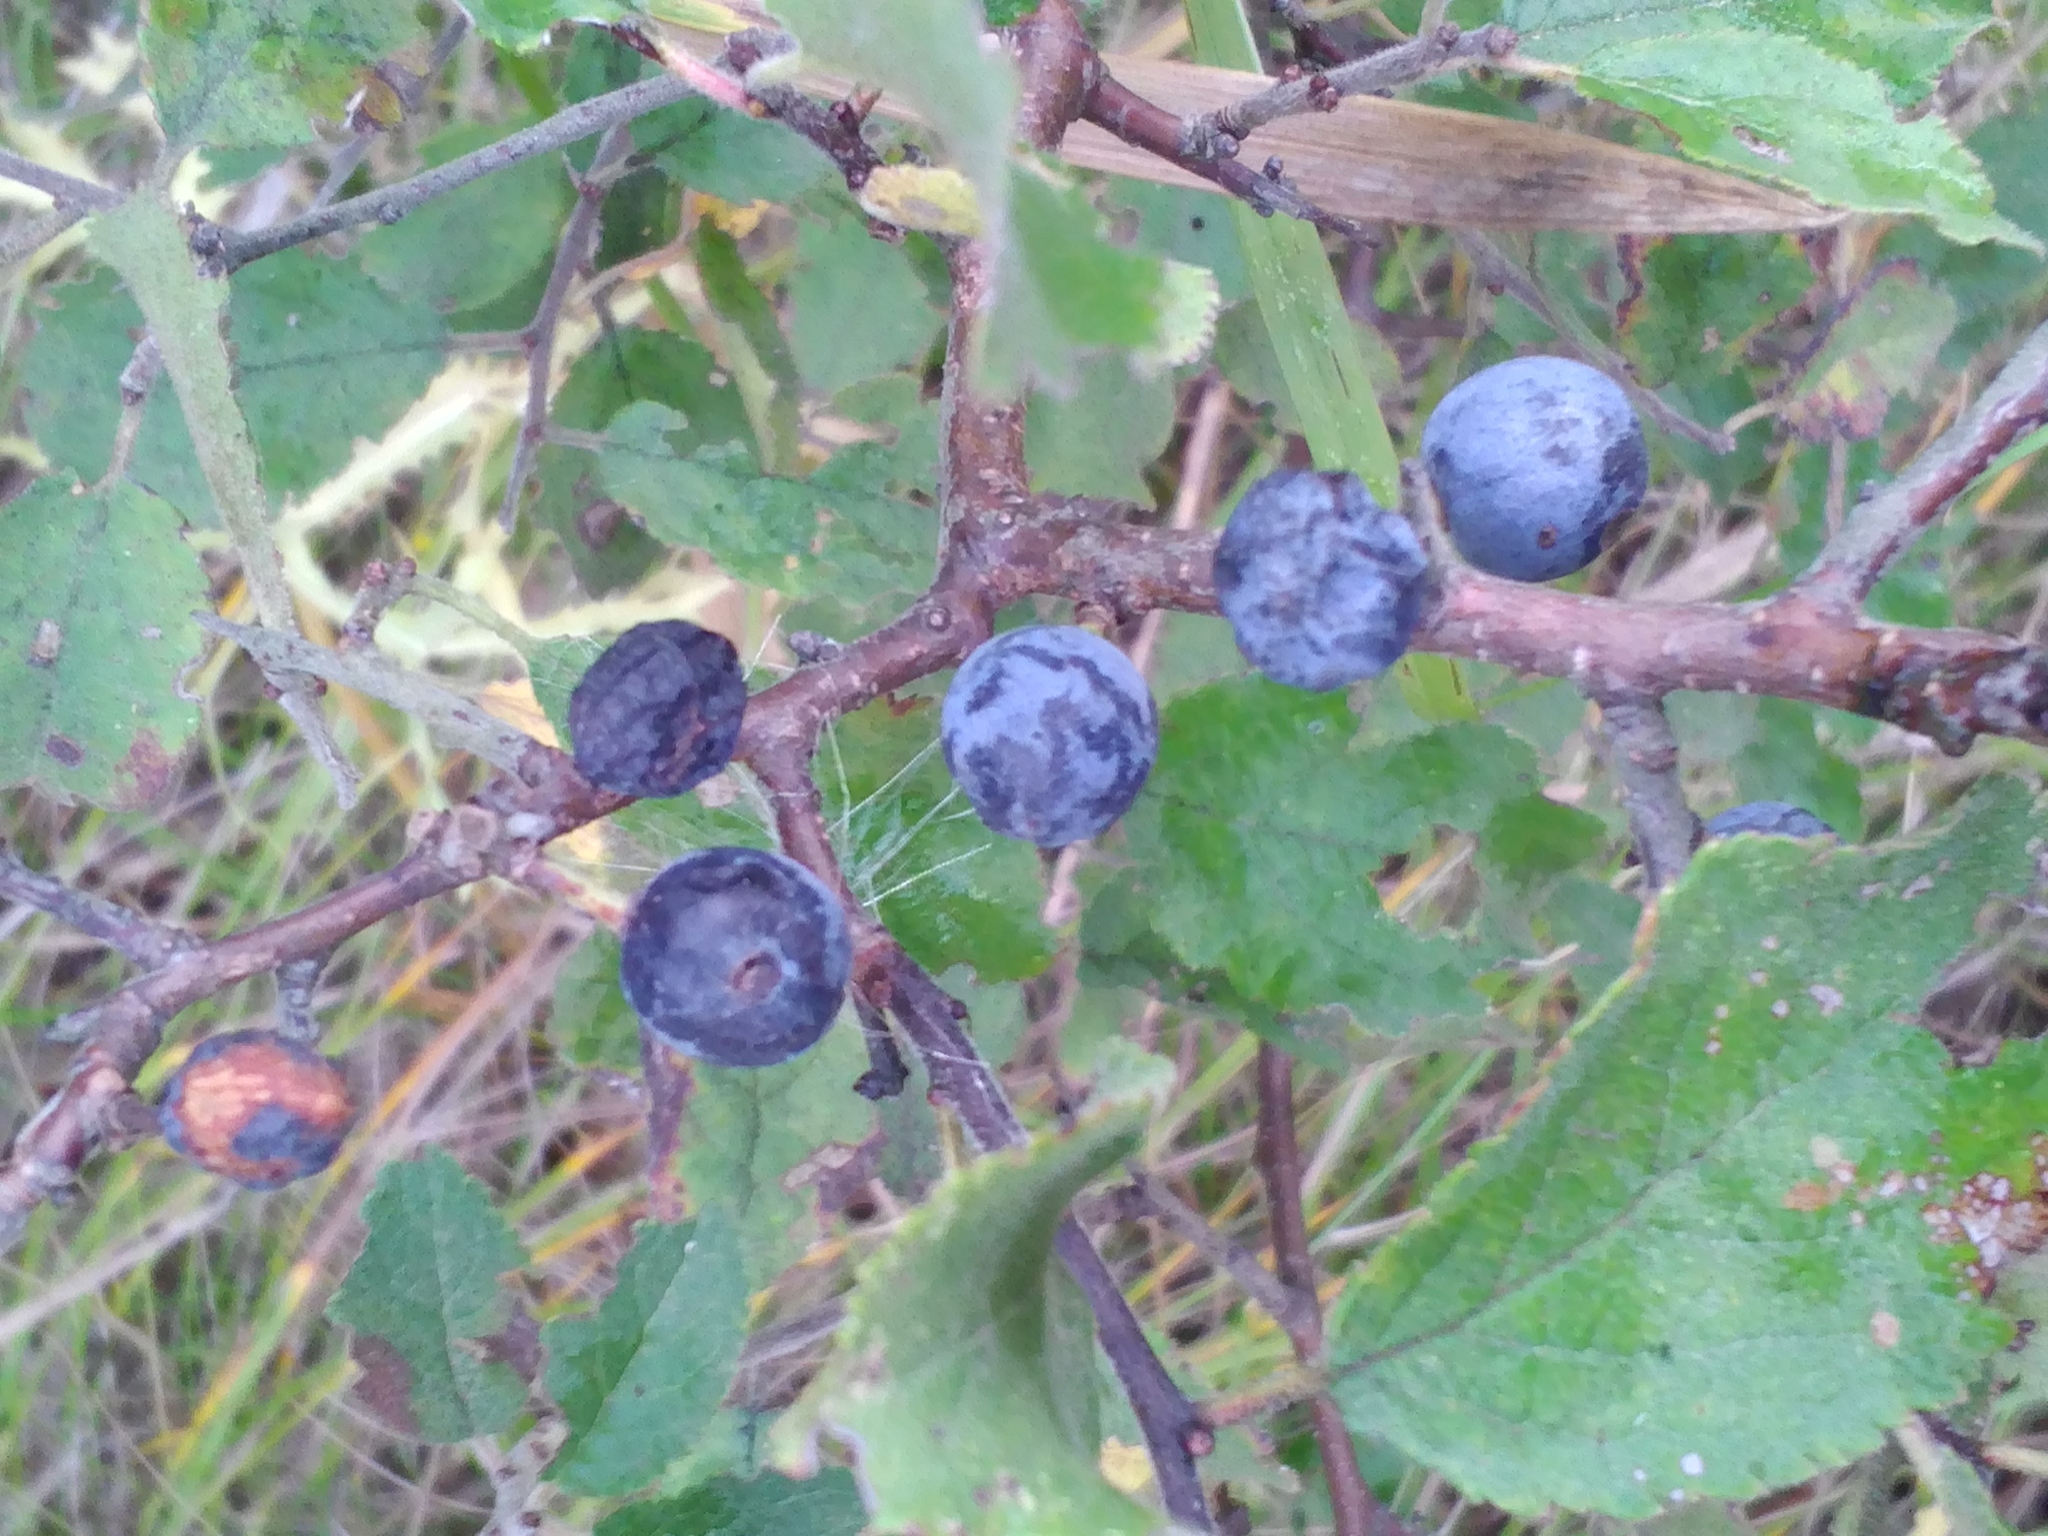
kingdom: Plantae
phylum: Tracheophyta
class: Magnoliopsida
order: Rosales
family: Rosaceae
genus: Prunus
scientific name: Prunus spinosa
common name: Blackthorn
